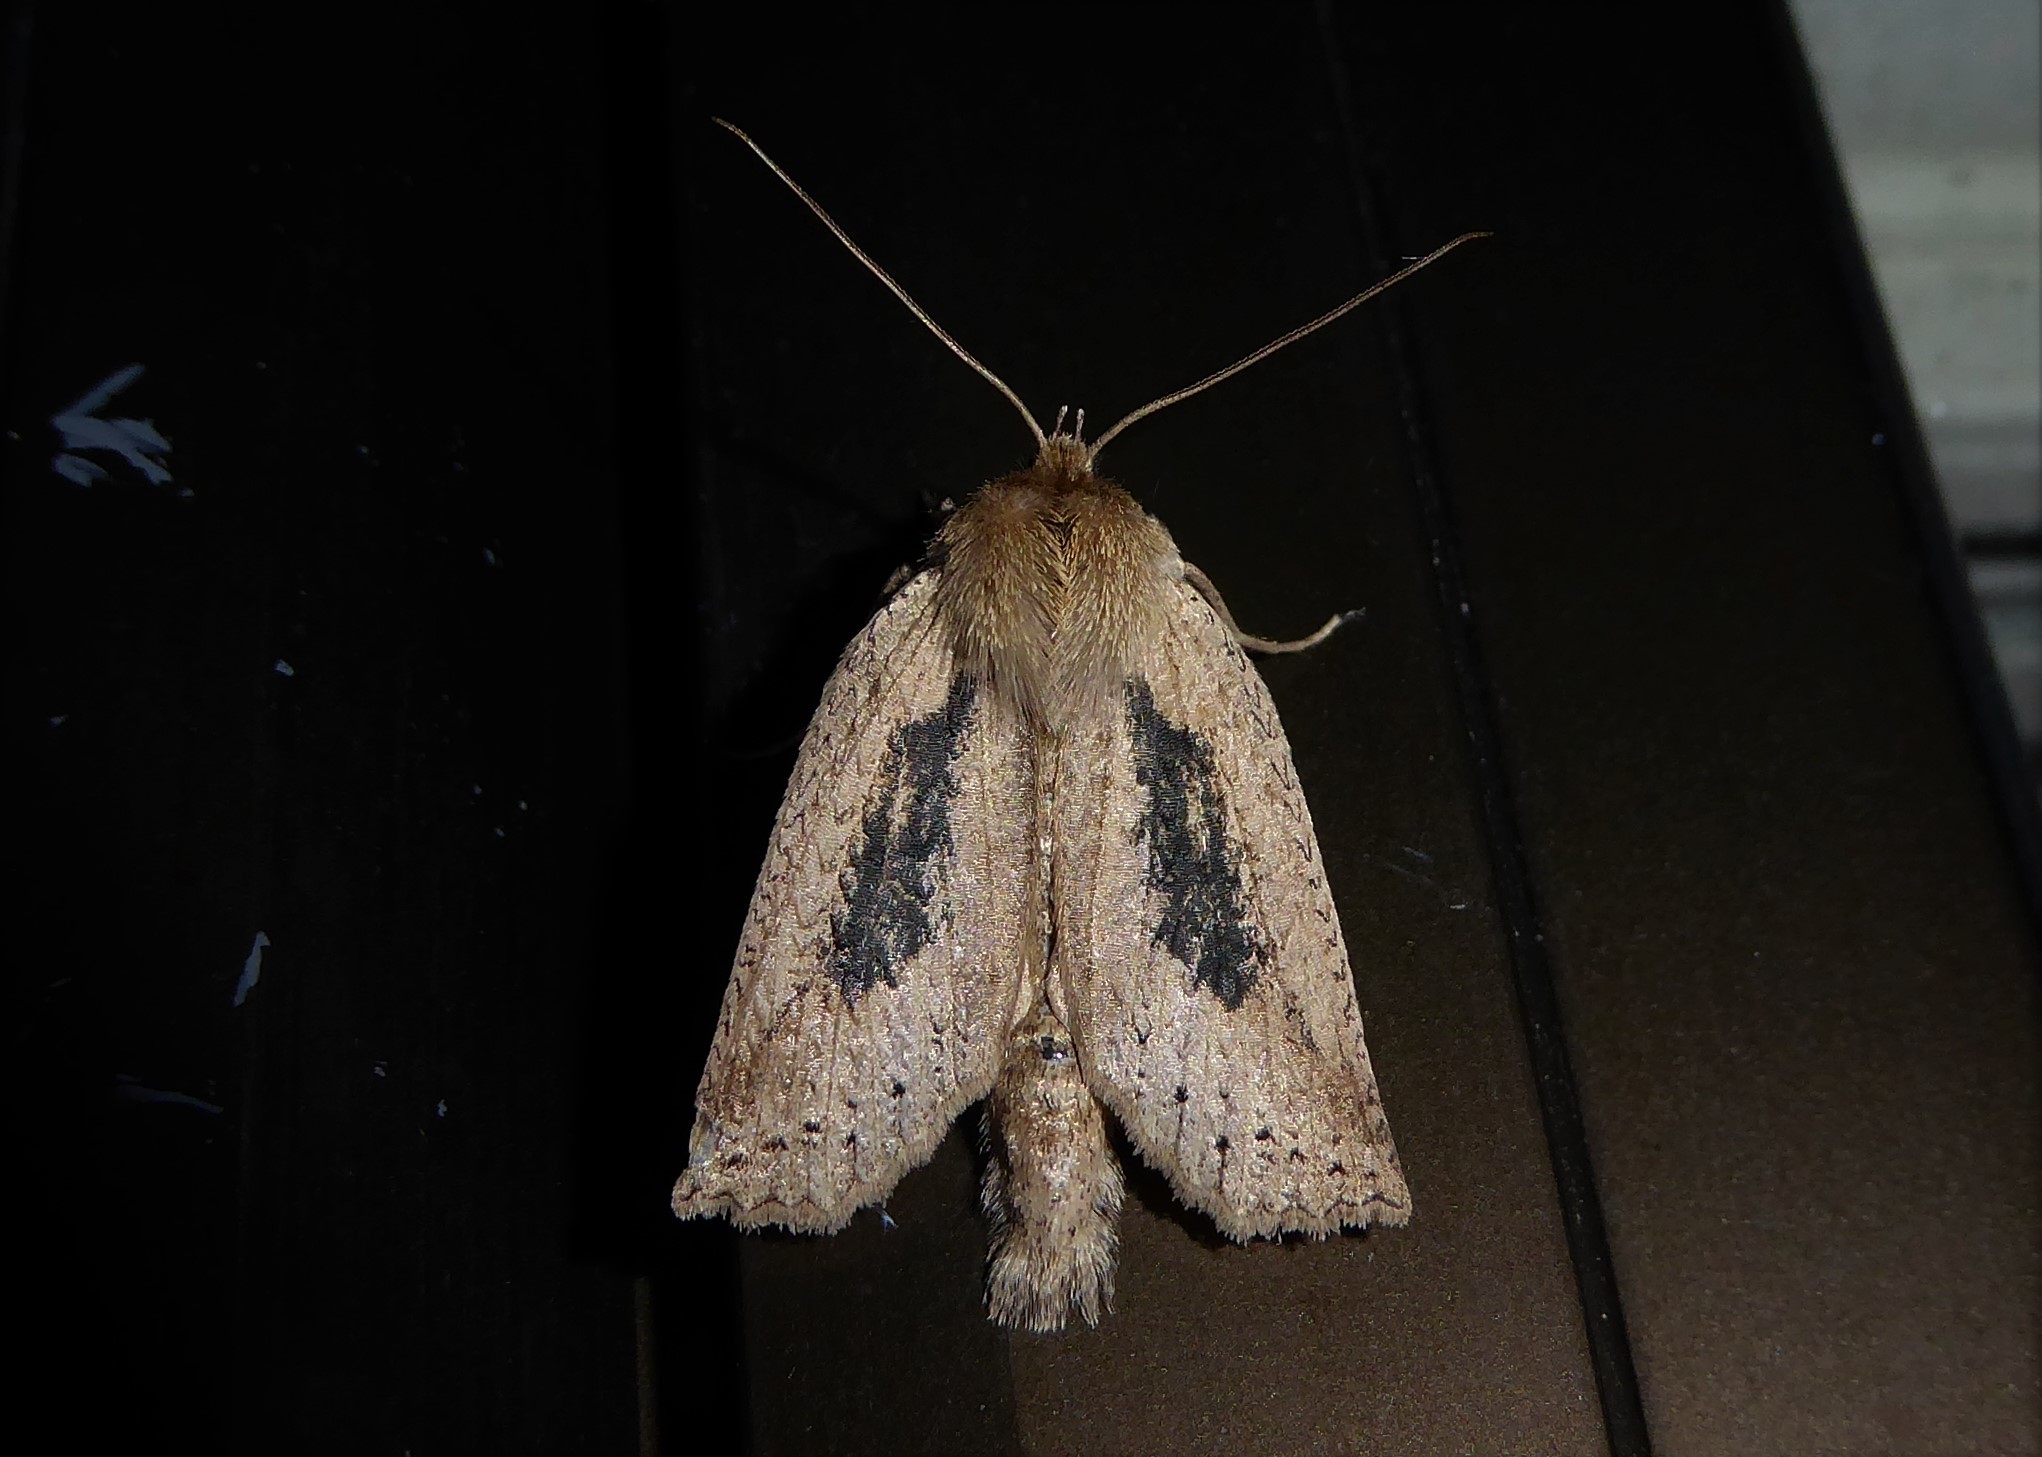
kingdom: Animalia
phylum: Arthropoda
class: Insecta
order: Lepidoptera
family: Geometridae
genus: Declana
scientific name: Declana leptomera
